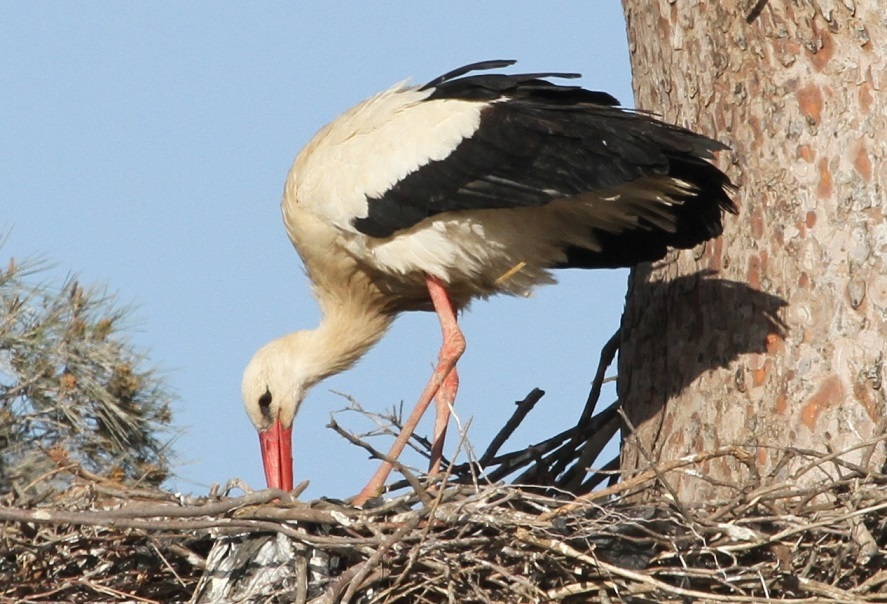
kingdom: Animalia
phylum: Chordata
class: Aves
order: Ciconiiformes
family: Ciconiidae
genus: Ciconia
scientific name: Ciconia ciconia
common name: White stork
